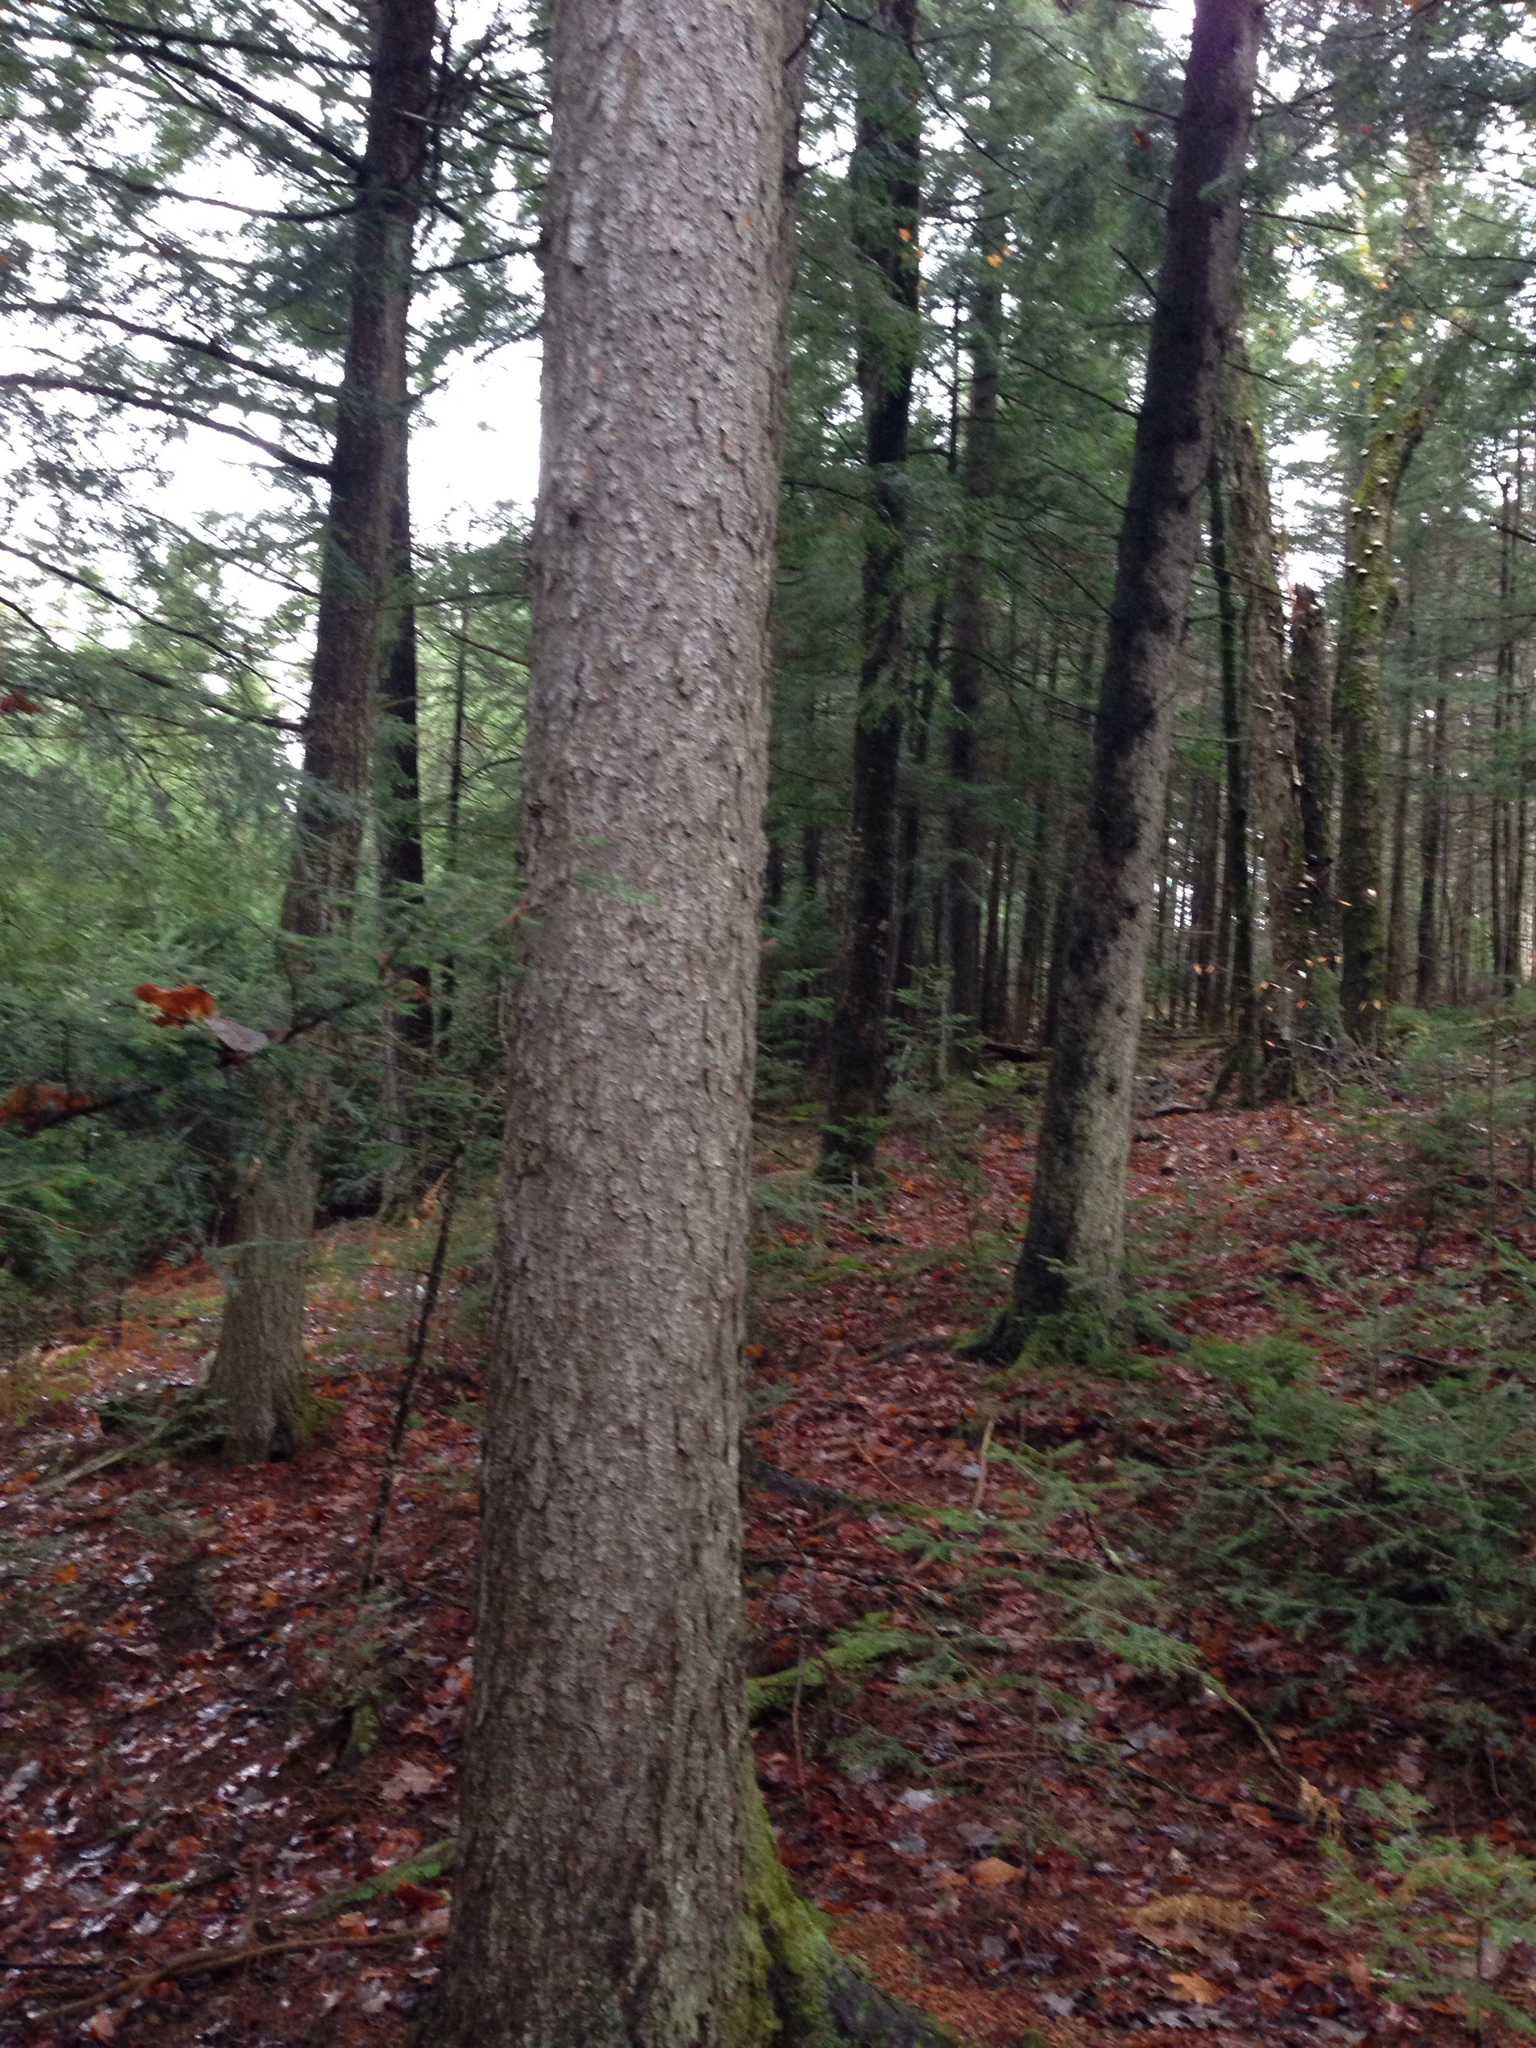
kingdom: Plantae
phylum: Tracheophyta
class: Pinopsida
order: Pinales
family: Pinaceae
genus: Picea
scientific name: Picea rubens
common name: Red spruce
